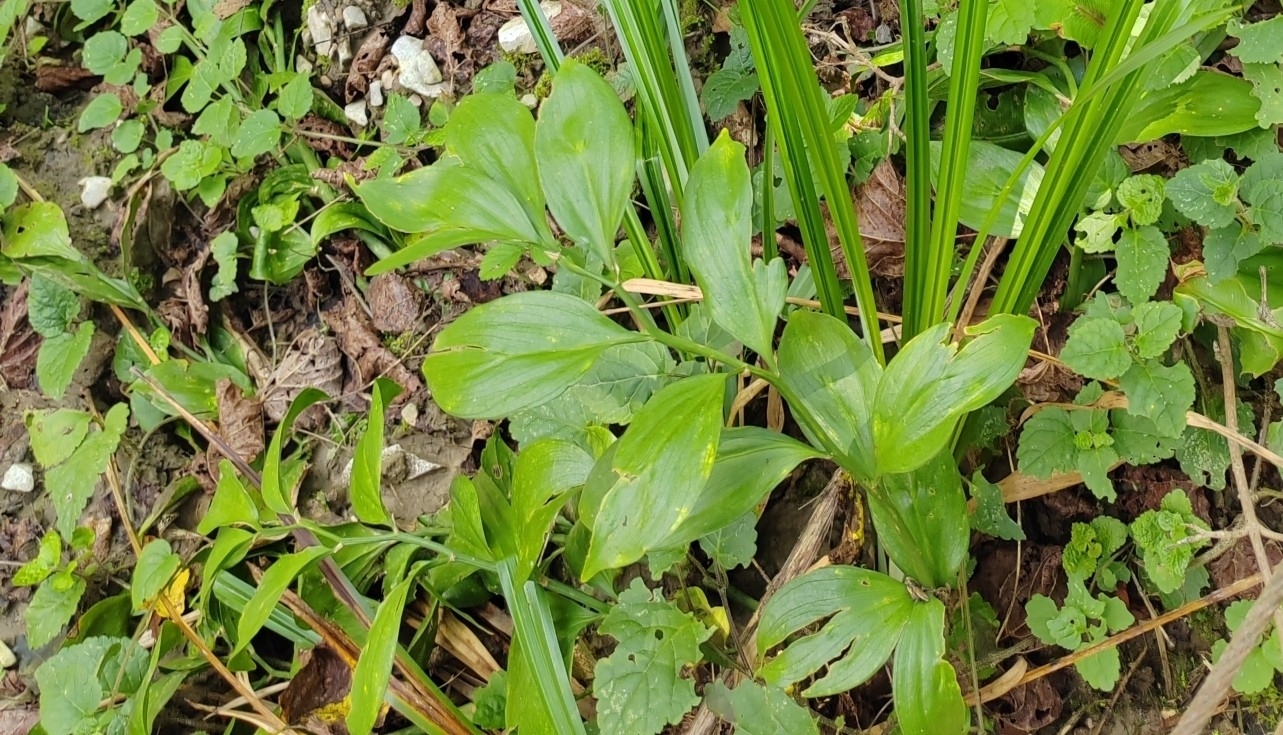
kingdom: Plantae
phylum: Tracheophyta
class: Liliopsida
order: Asparagales
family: Asparagaceae
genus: Ruscus
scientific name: Ruscus colchicus
